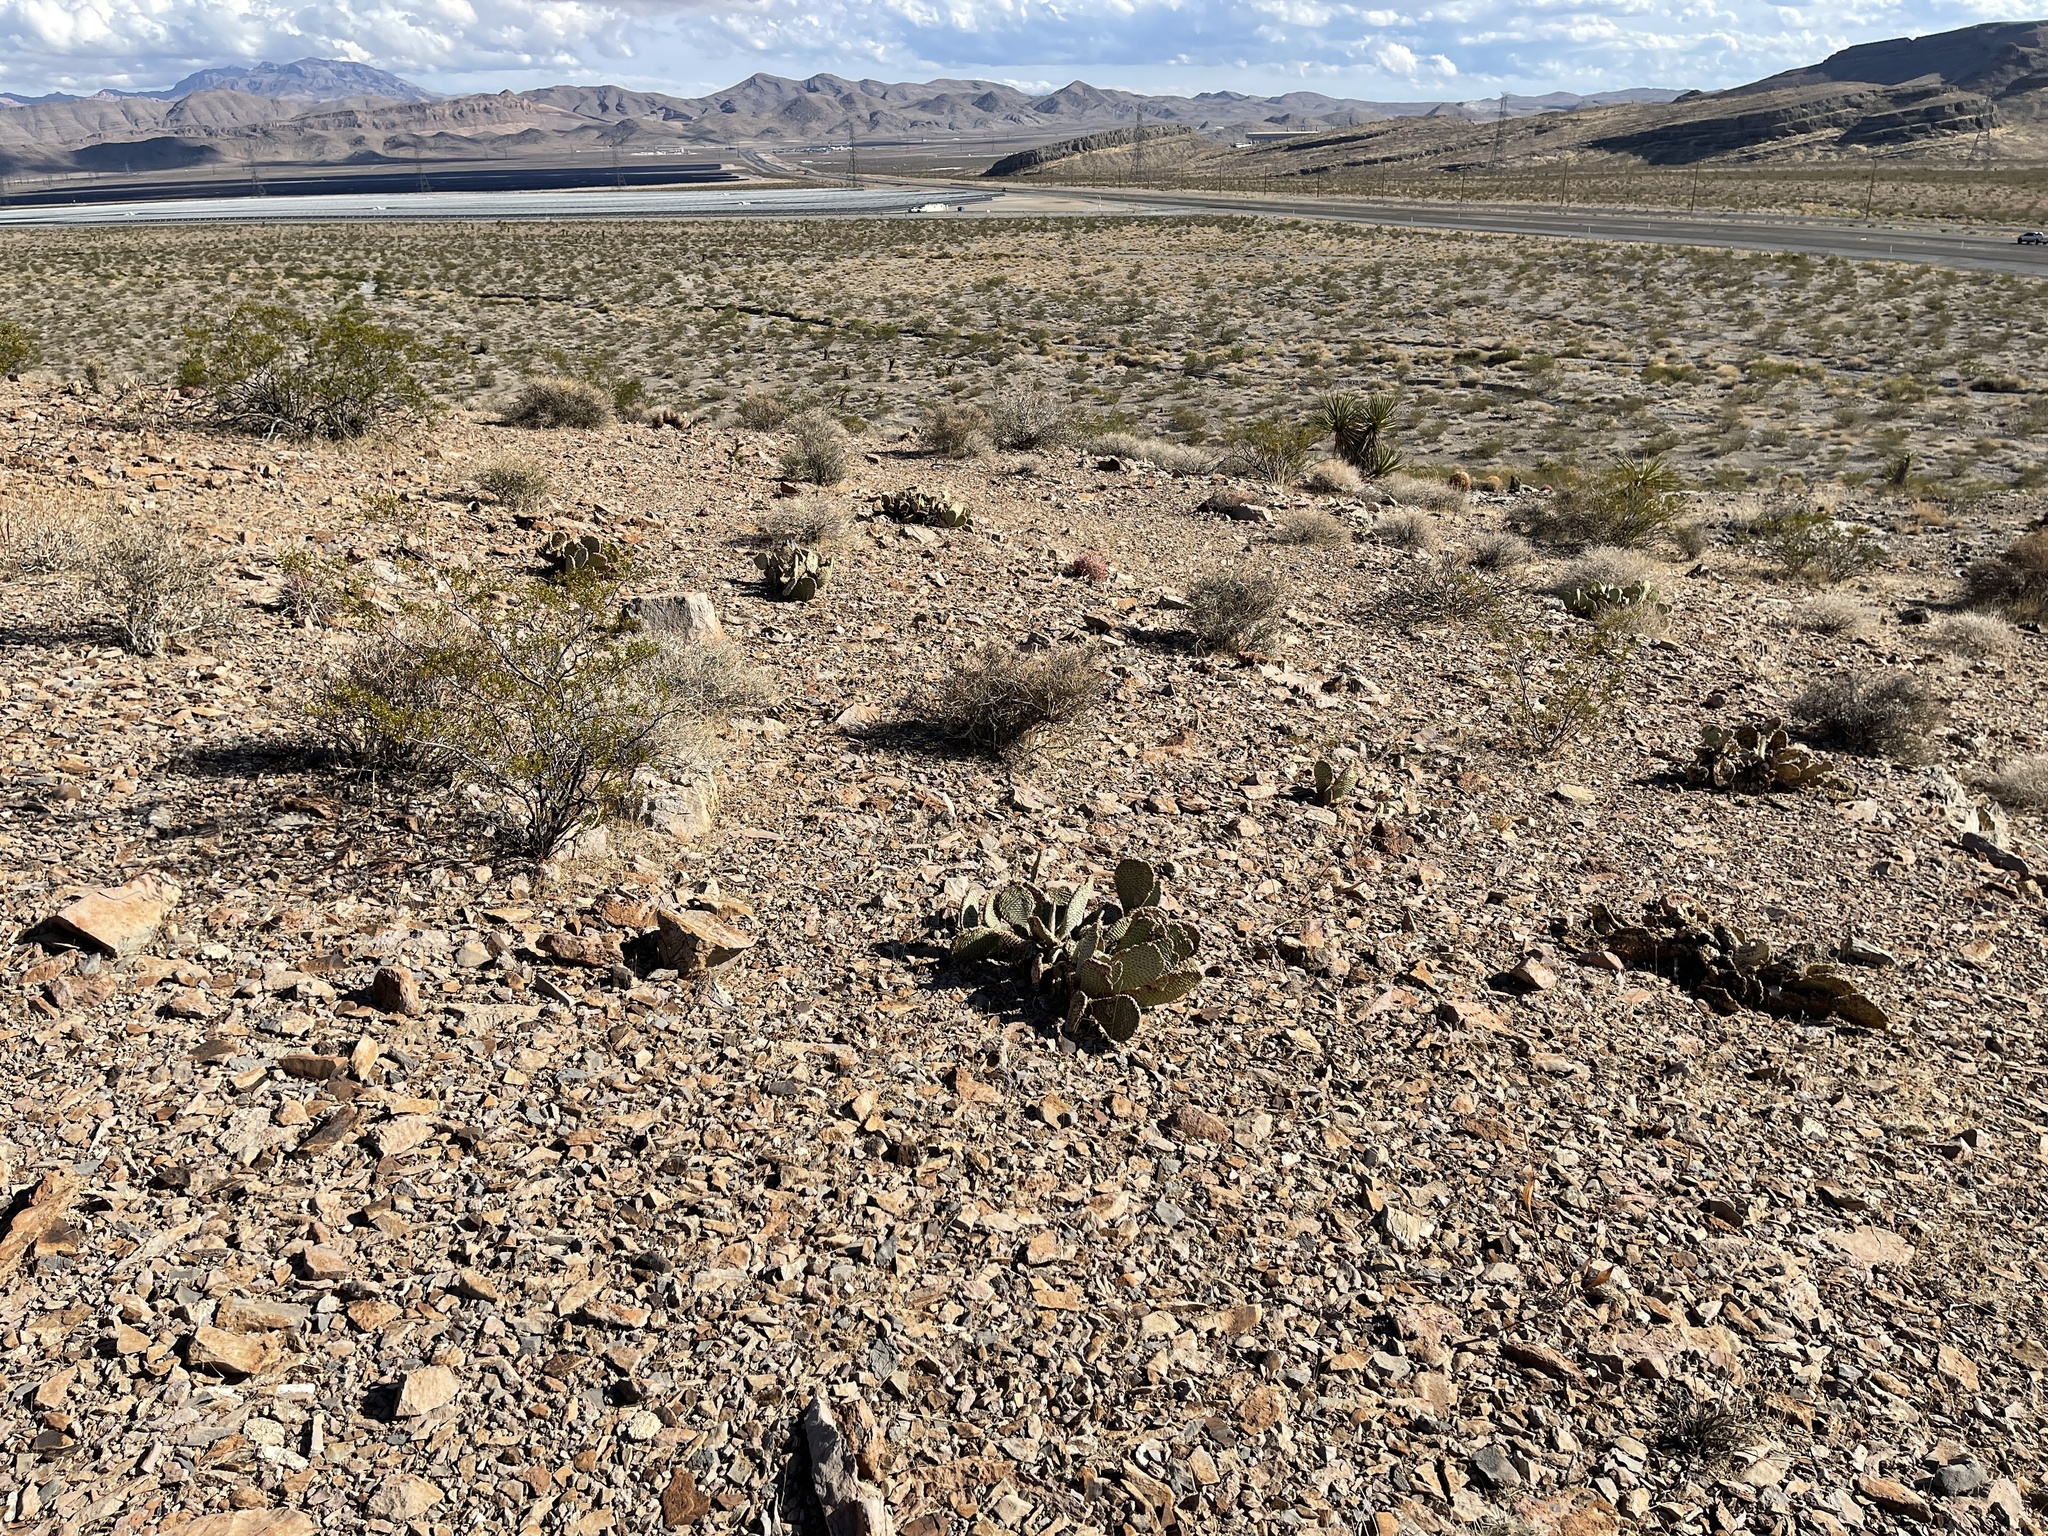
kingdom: Plantae
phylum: Tracheophyta
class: Magnoliopsida
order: Caryophyllales
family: Cactaceae
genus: Opuntia
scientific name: Opuntia basilaris
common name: Beavertail prickly-pear
